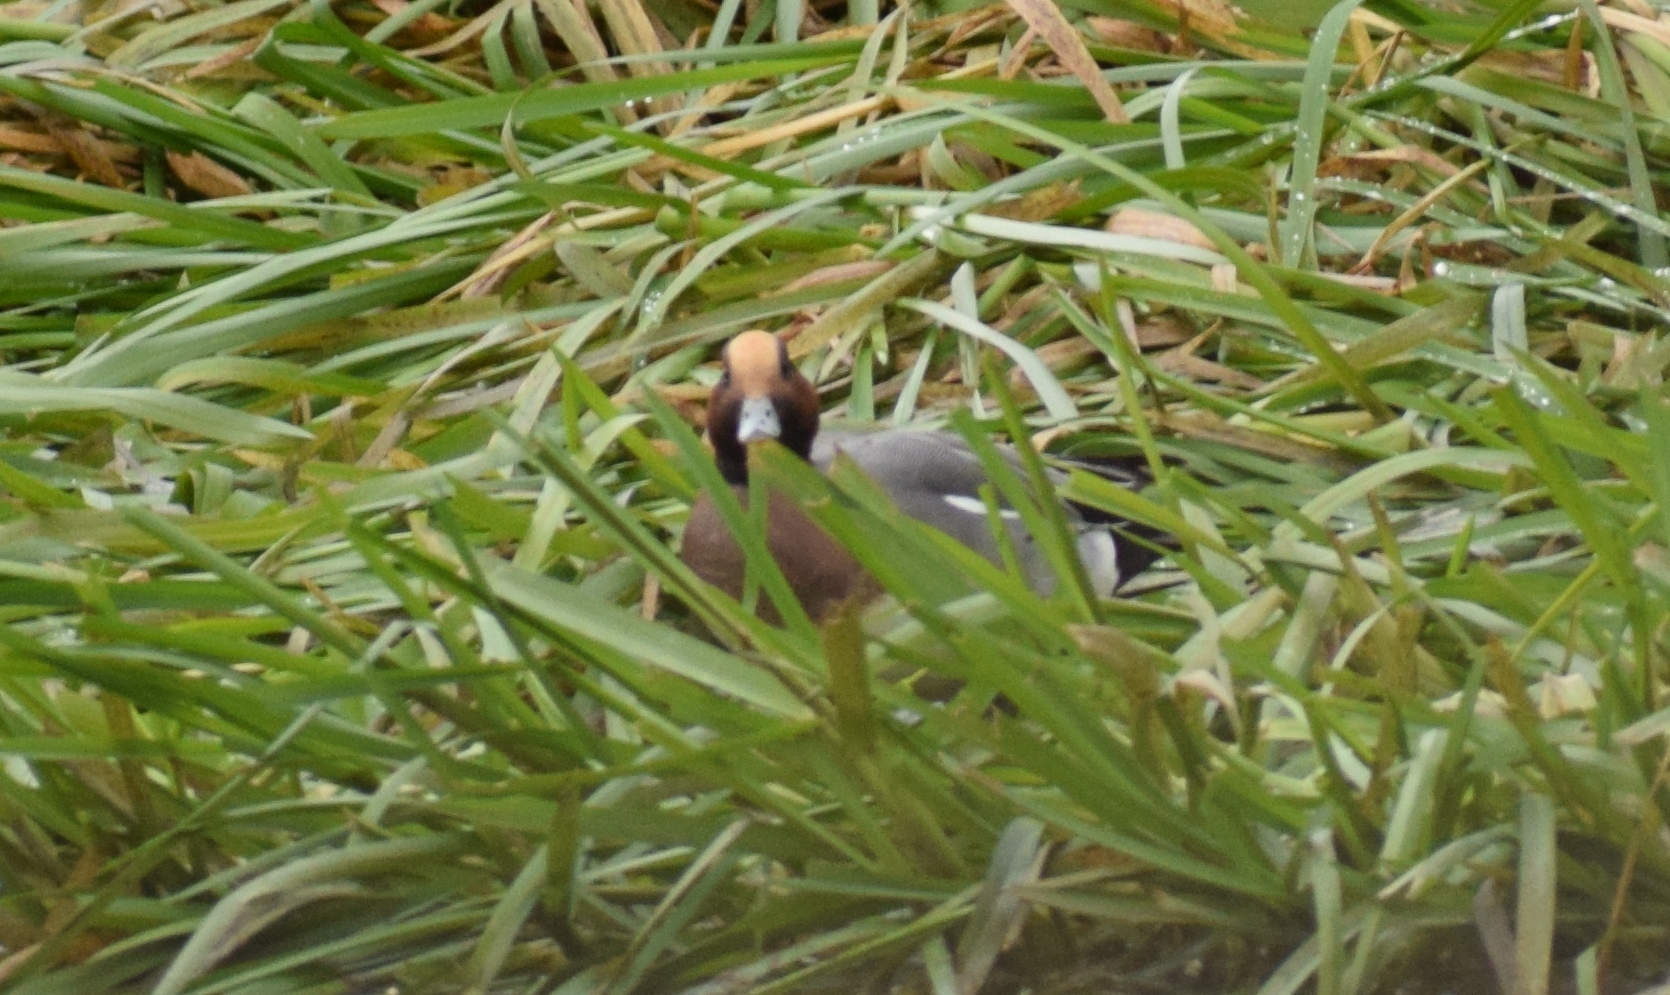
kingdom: Animalia
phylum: Chordata
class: Aves
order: Anseriformes
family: Anatidae
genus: Mareca
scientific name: Mareca penelope
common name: Eurasian wigeon
